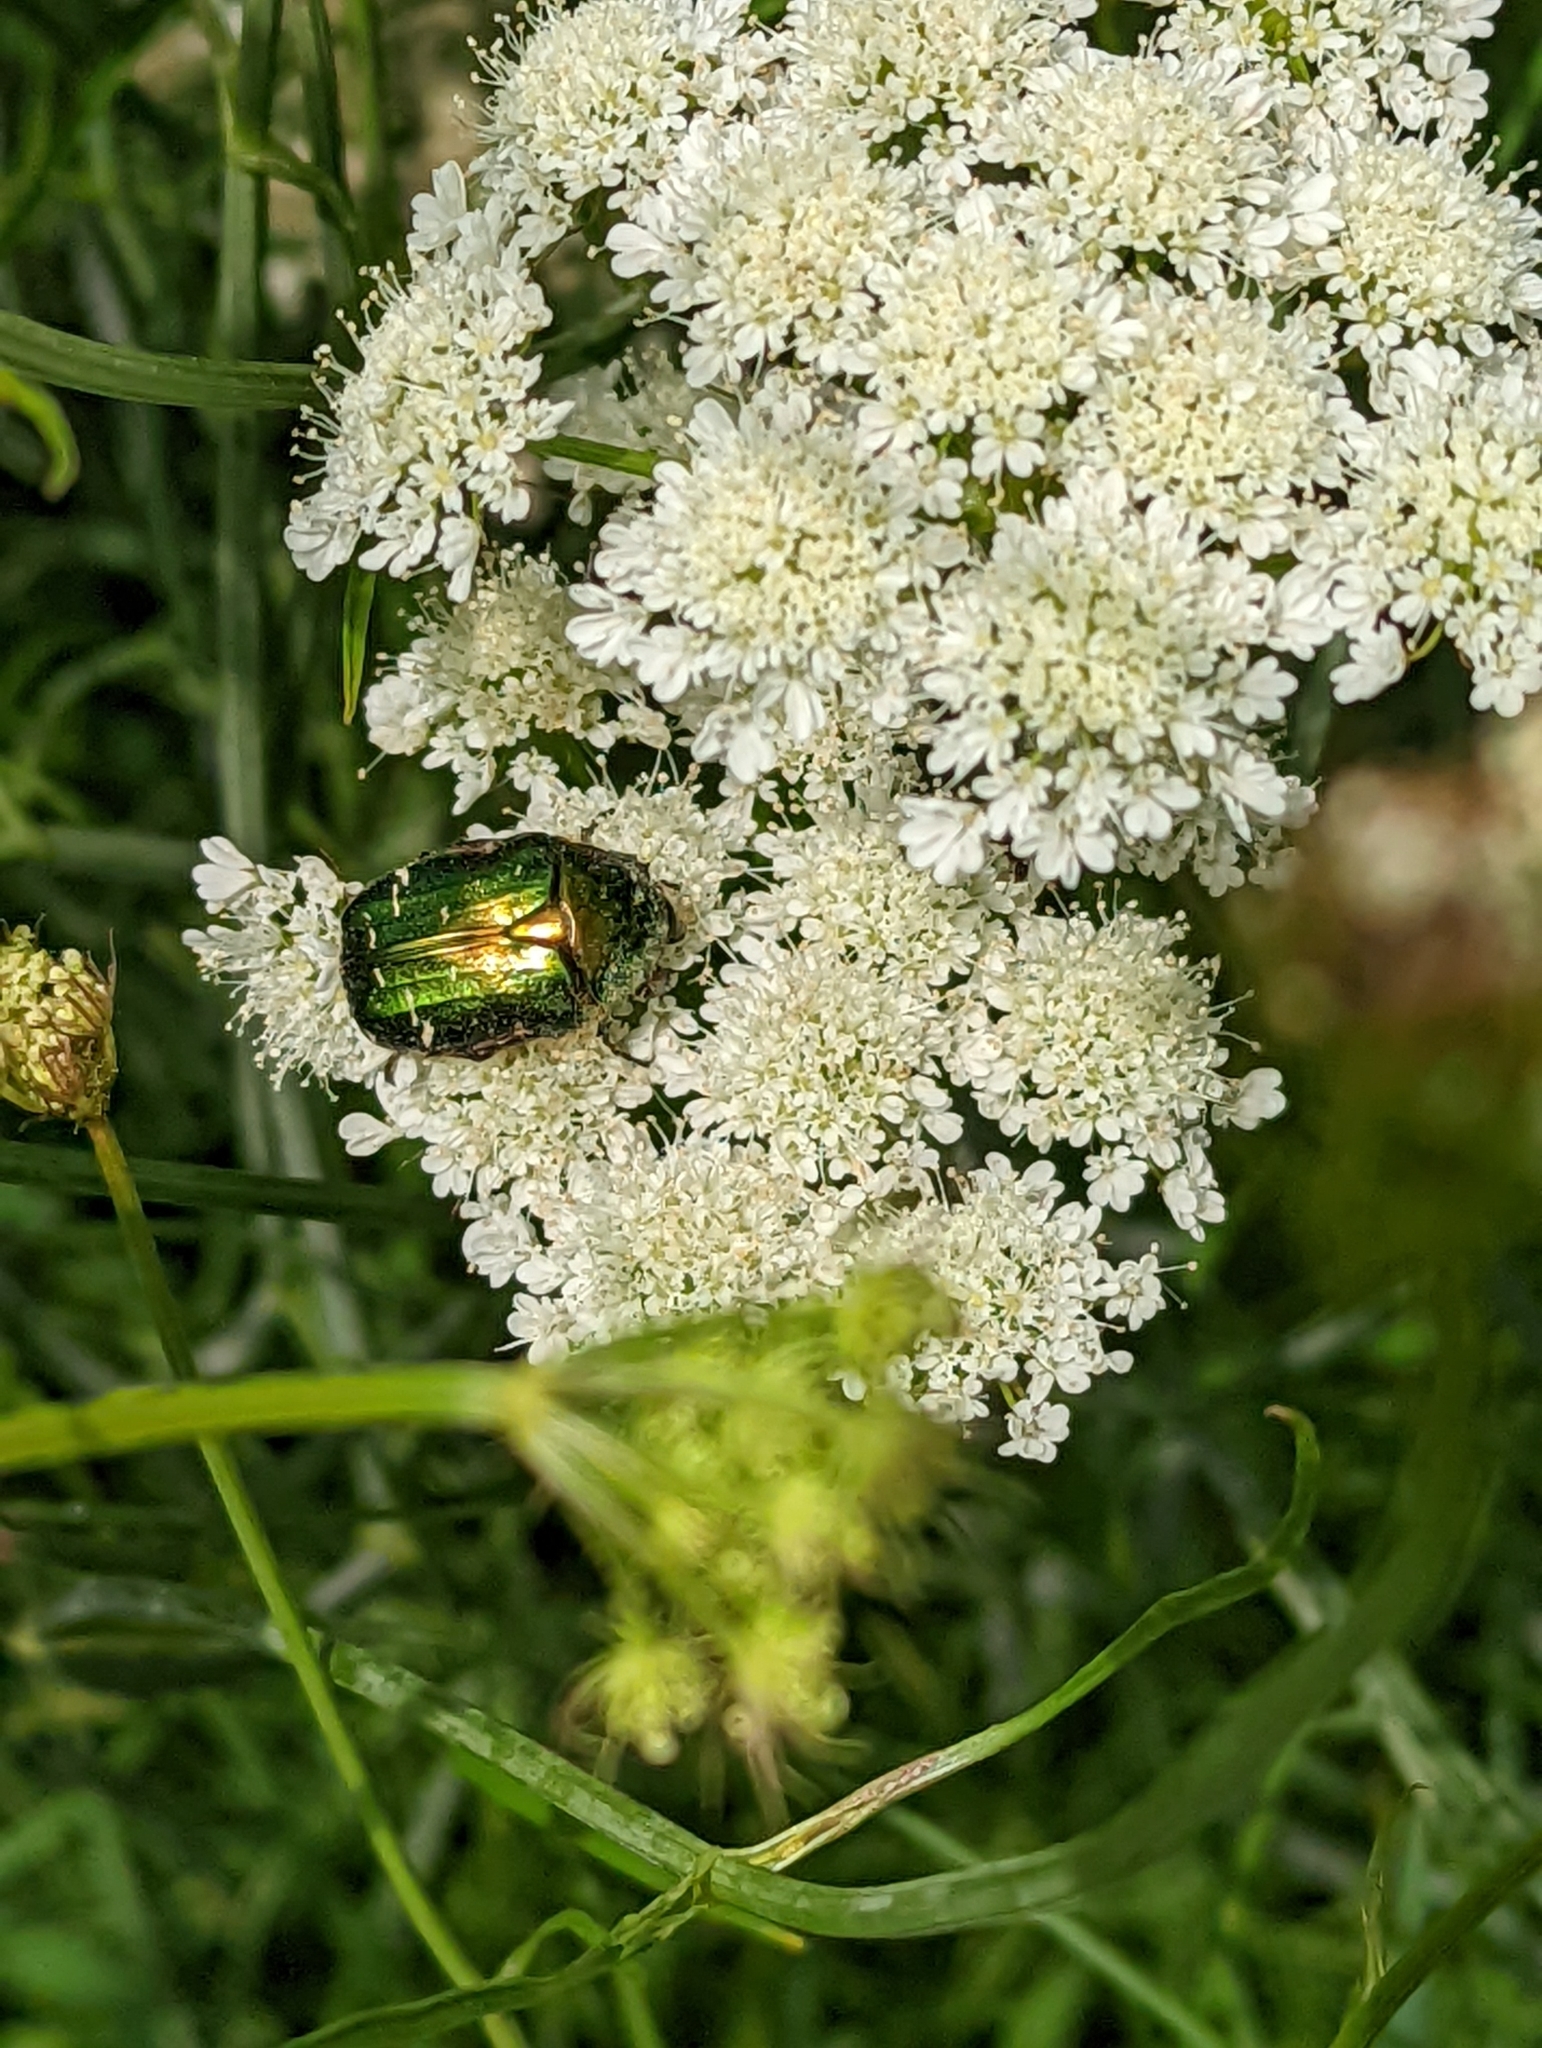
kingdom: Animalia
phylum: Arthropoda
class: Insecta
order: Coleoptera
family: Scarabaeidae
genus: Cetonia
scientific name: Cetonia aurata
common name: Rose chafer
